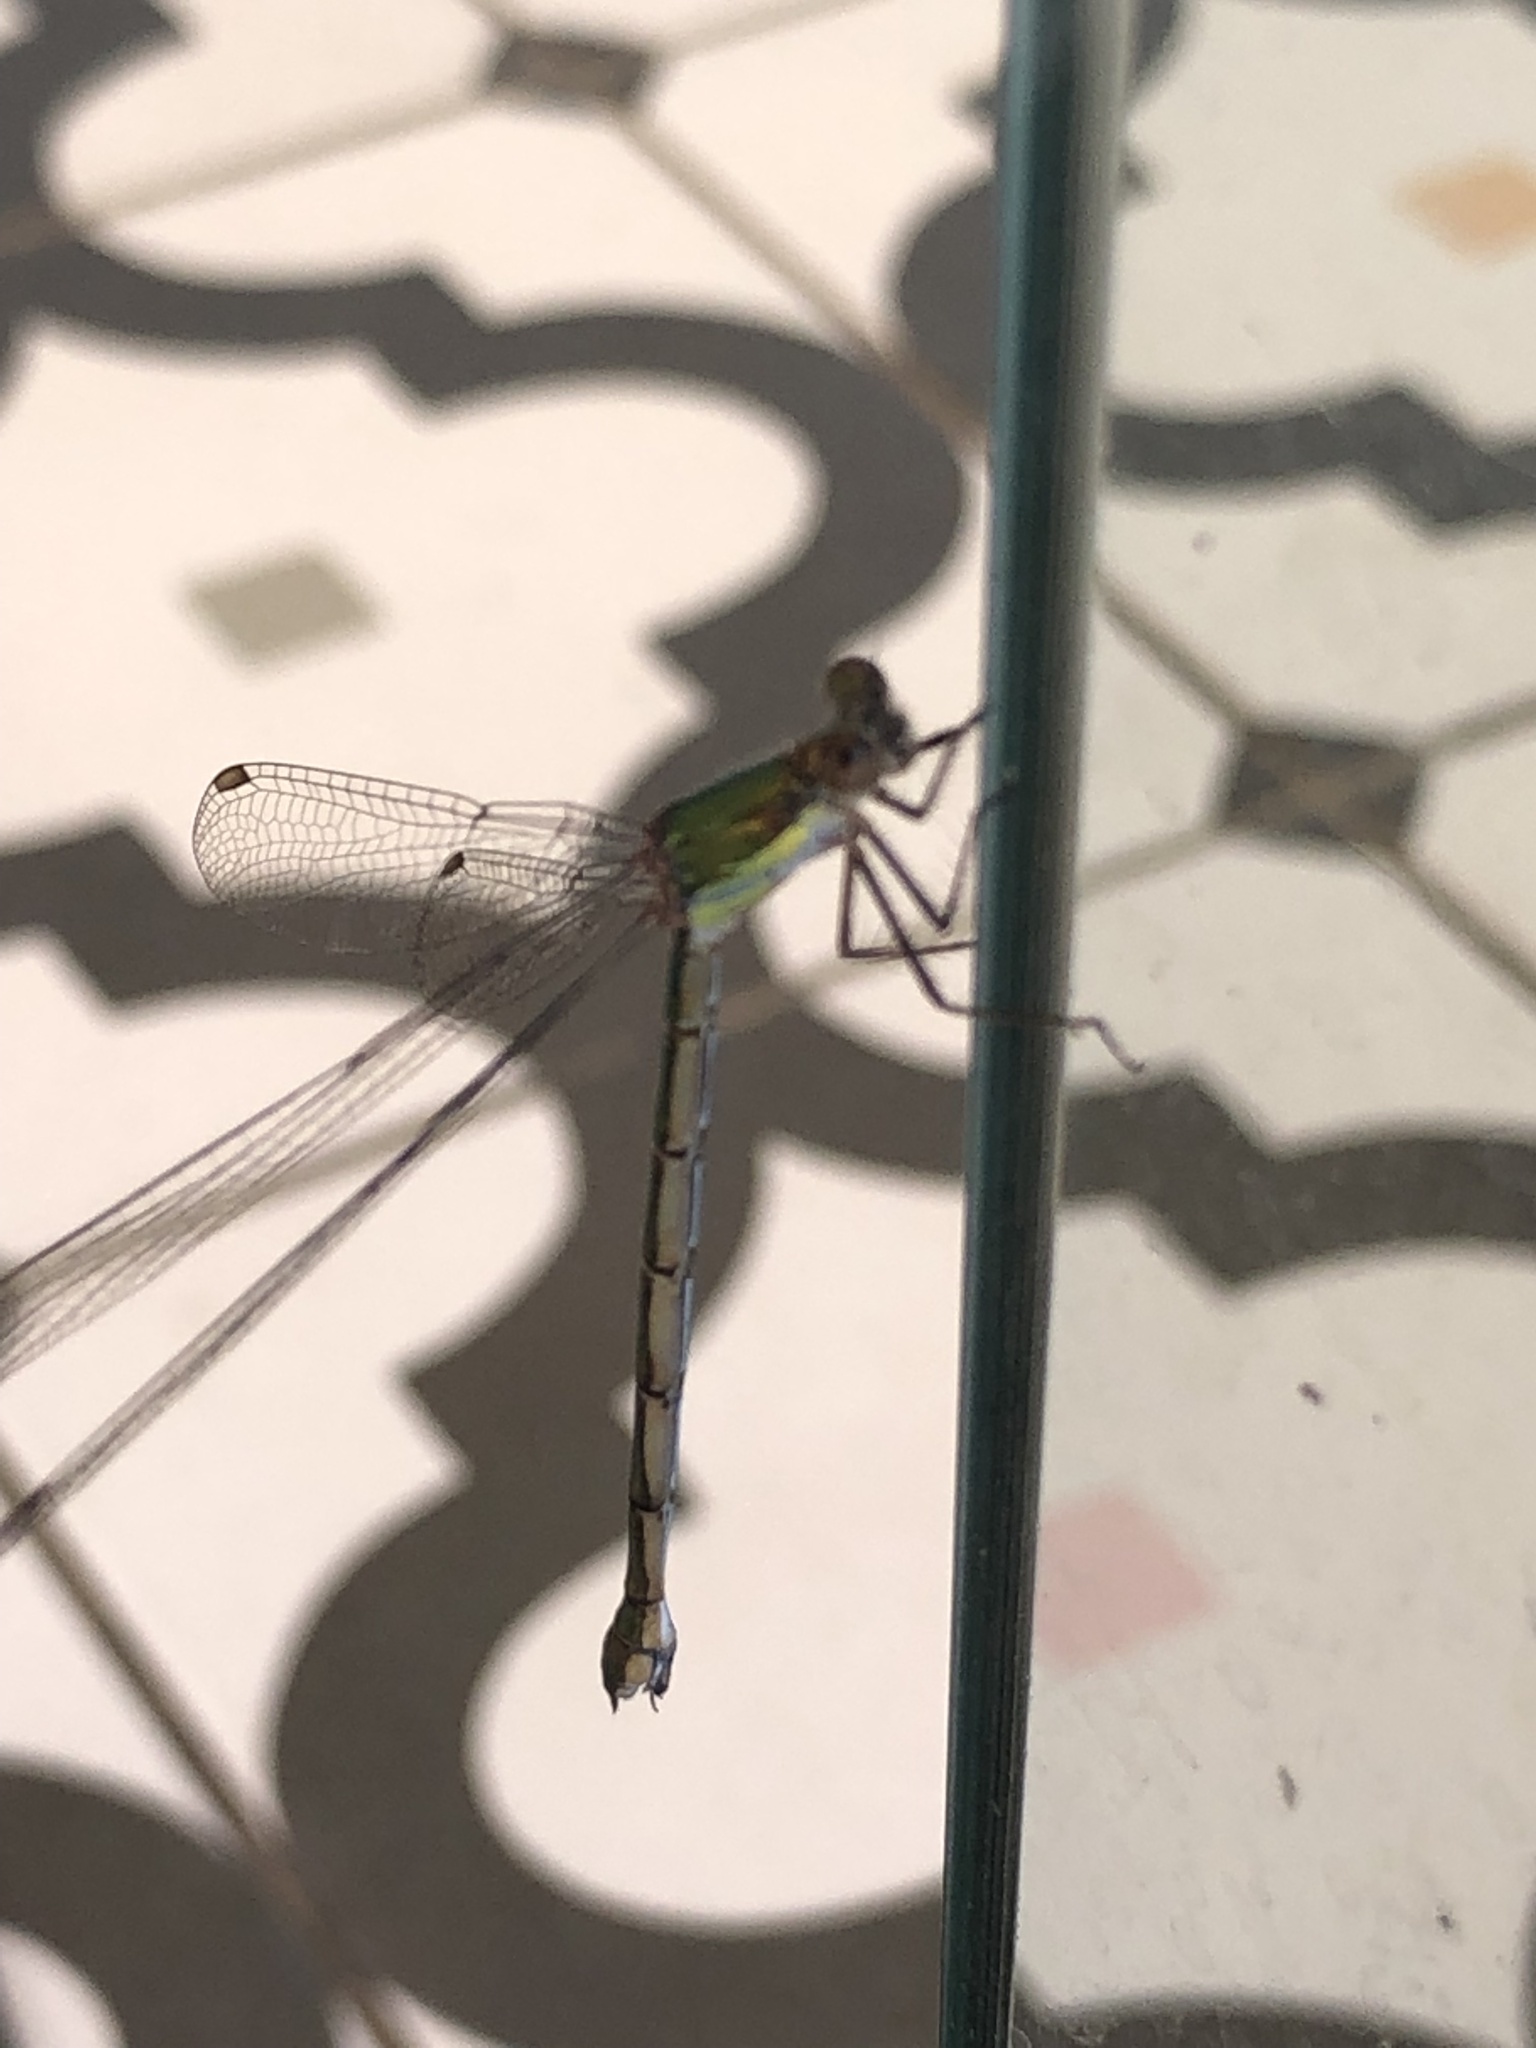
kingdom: Animalia
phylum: Arthropoda
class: Insecta
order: Odonata
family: Lestidae
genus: Chalcolestes
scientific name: Chalcolestes viridis
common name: Green emerald damselfly
